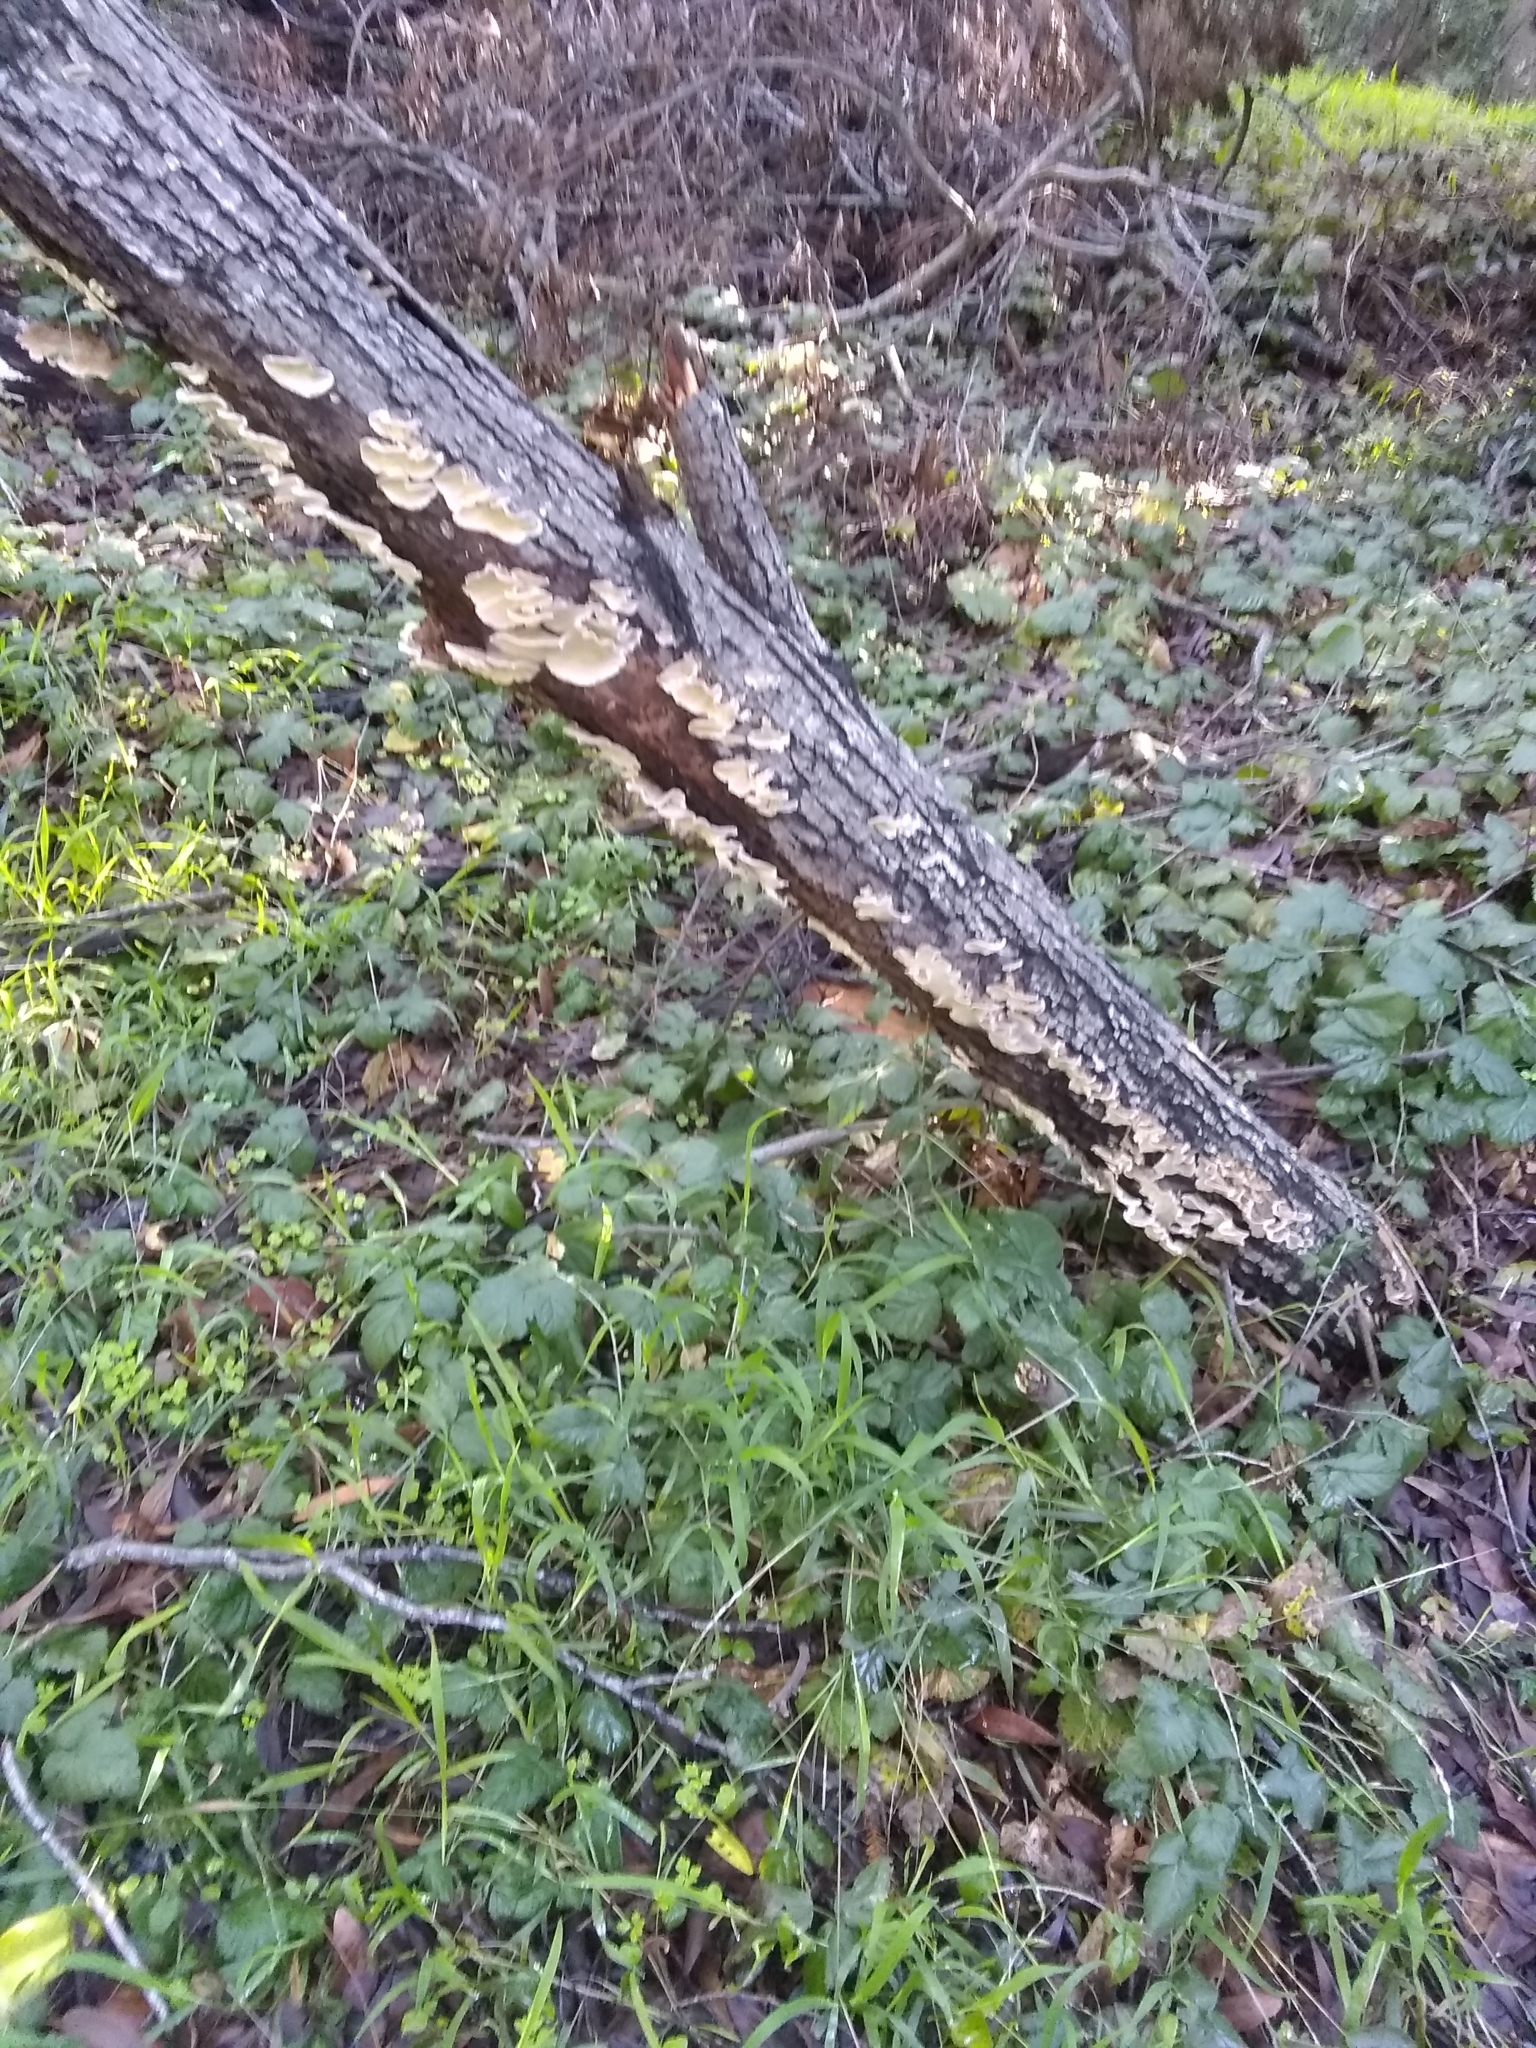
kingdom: Fungi
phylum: Basidiomycota
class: Agaricomycetes
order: Polyporales
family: Polyporaceae
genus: Trametes
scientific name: Trametes versicolor
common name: Turkeytail
